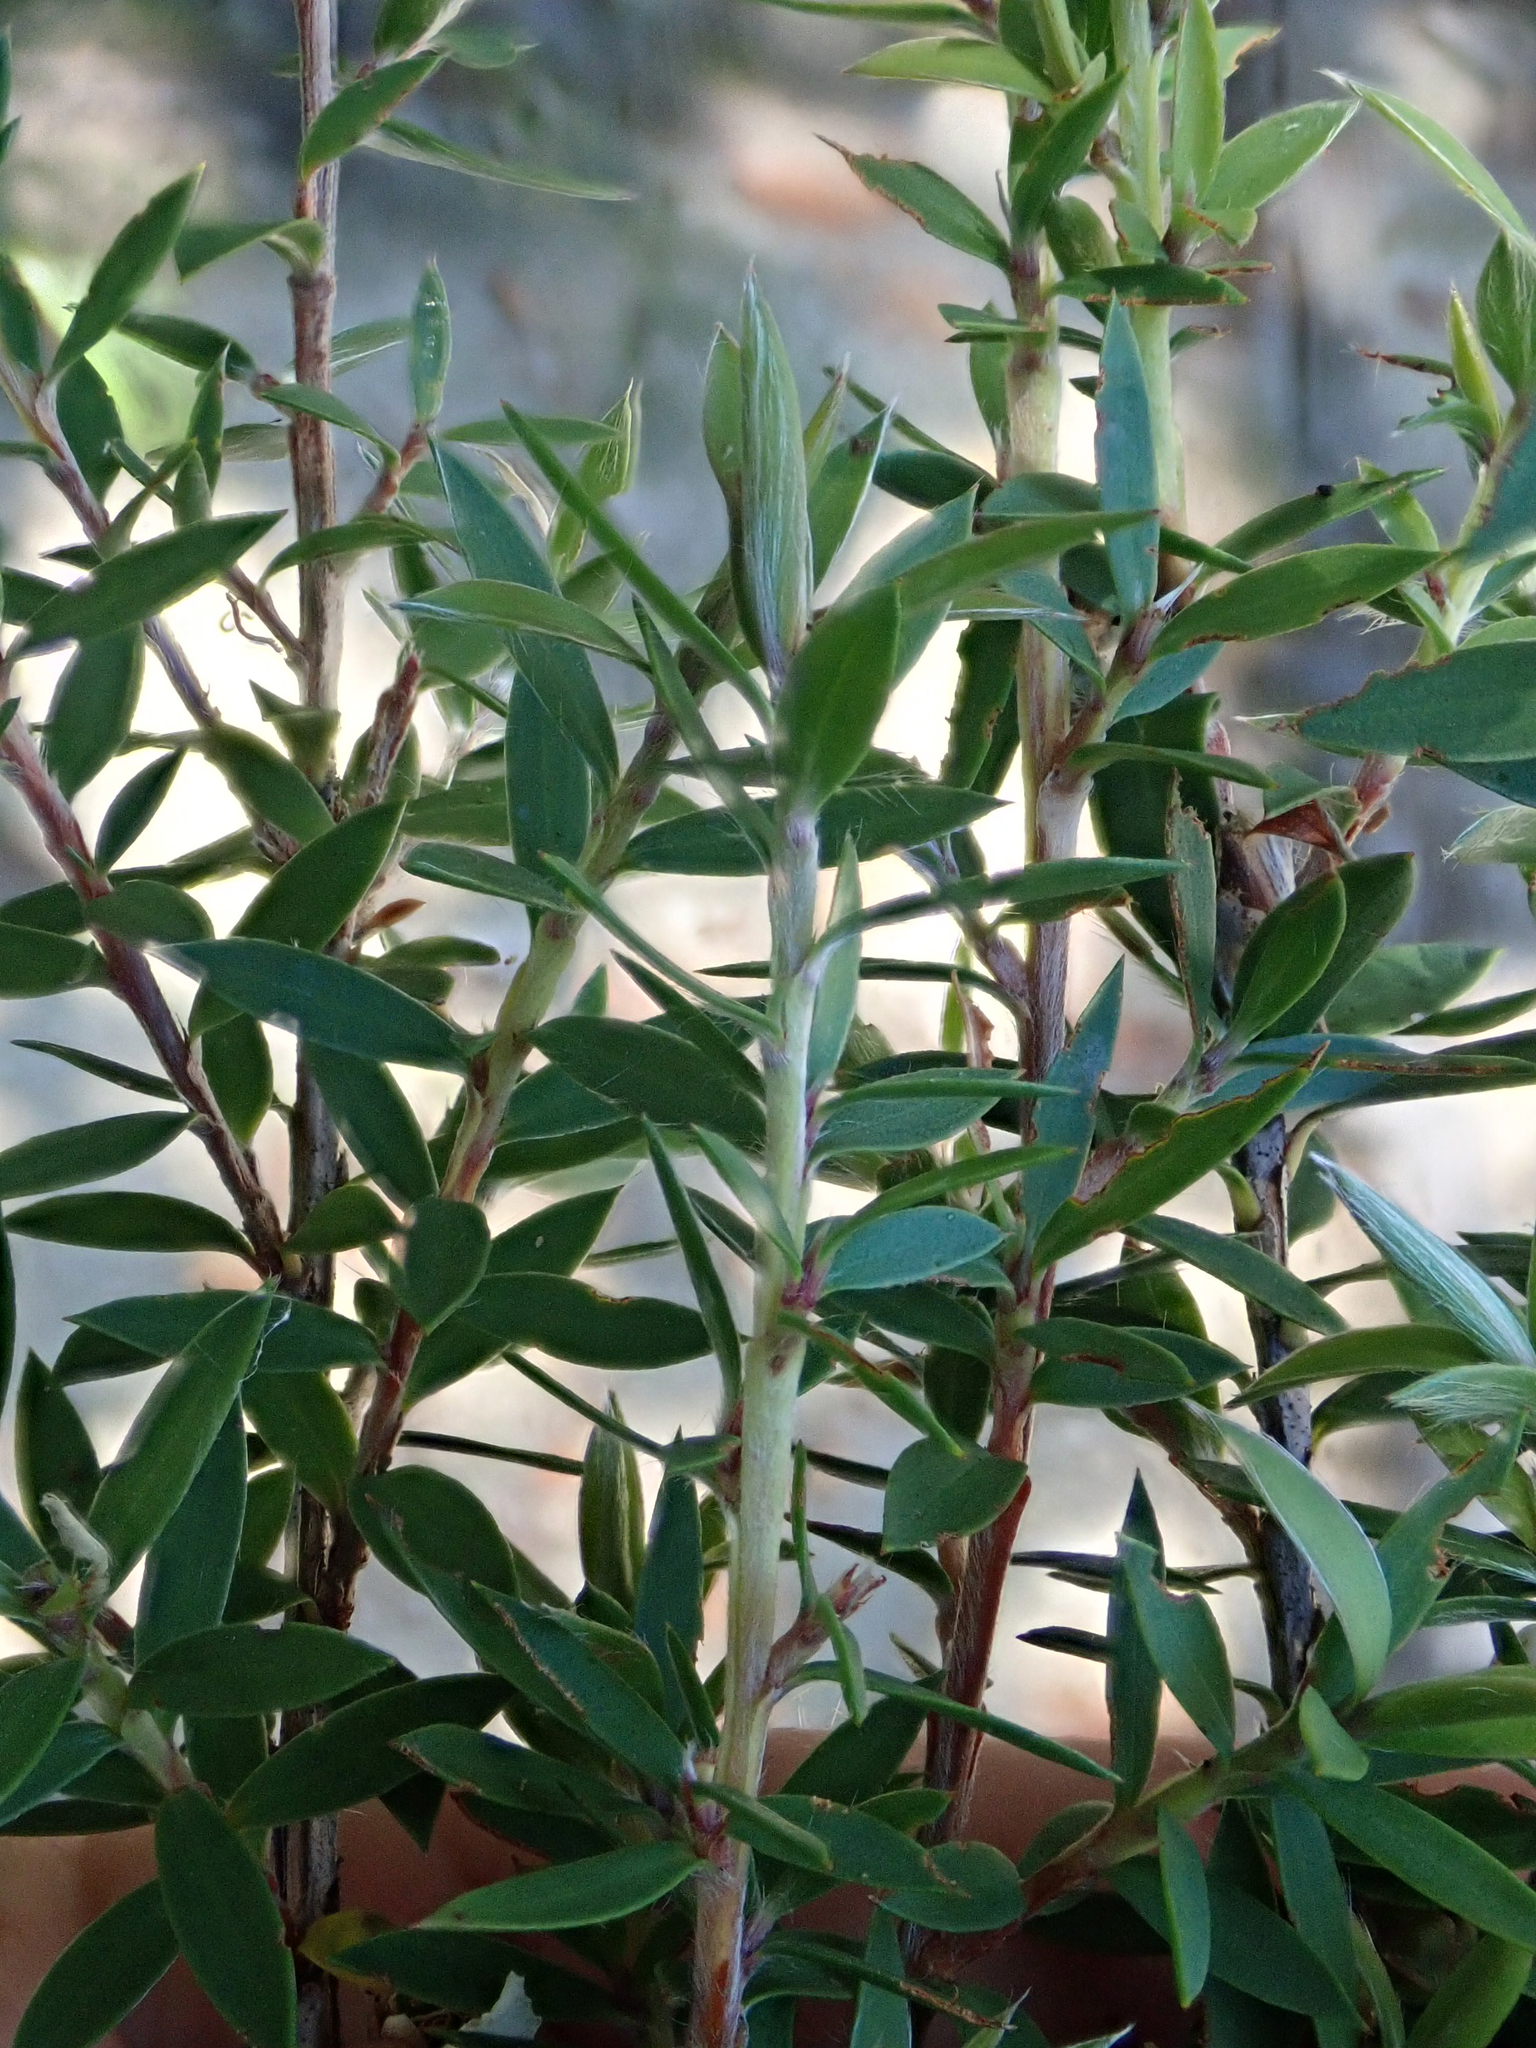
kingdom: Plantae
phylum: Tracheophyta
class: Magnoliopsida
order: Myrtales
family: Myrtaceae
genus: Leptospermum
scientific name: Leptospermum scoparium
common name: Broom tea-tree
